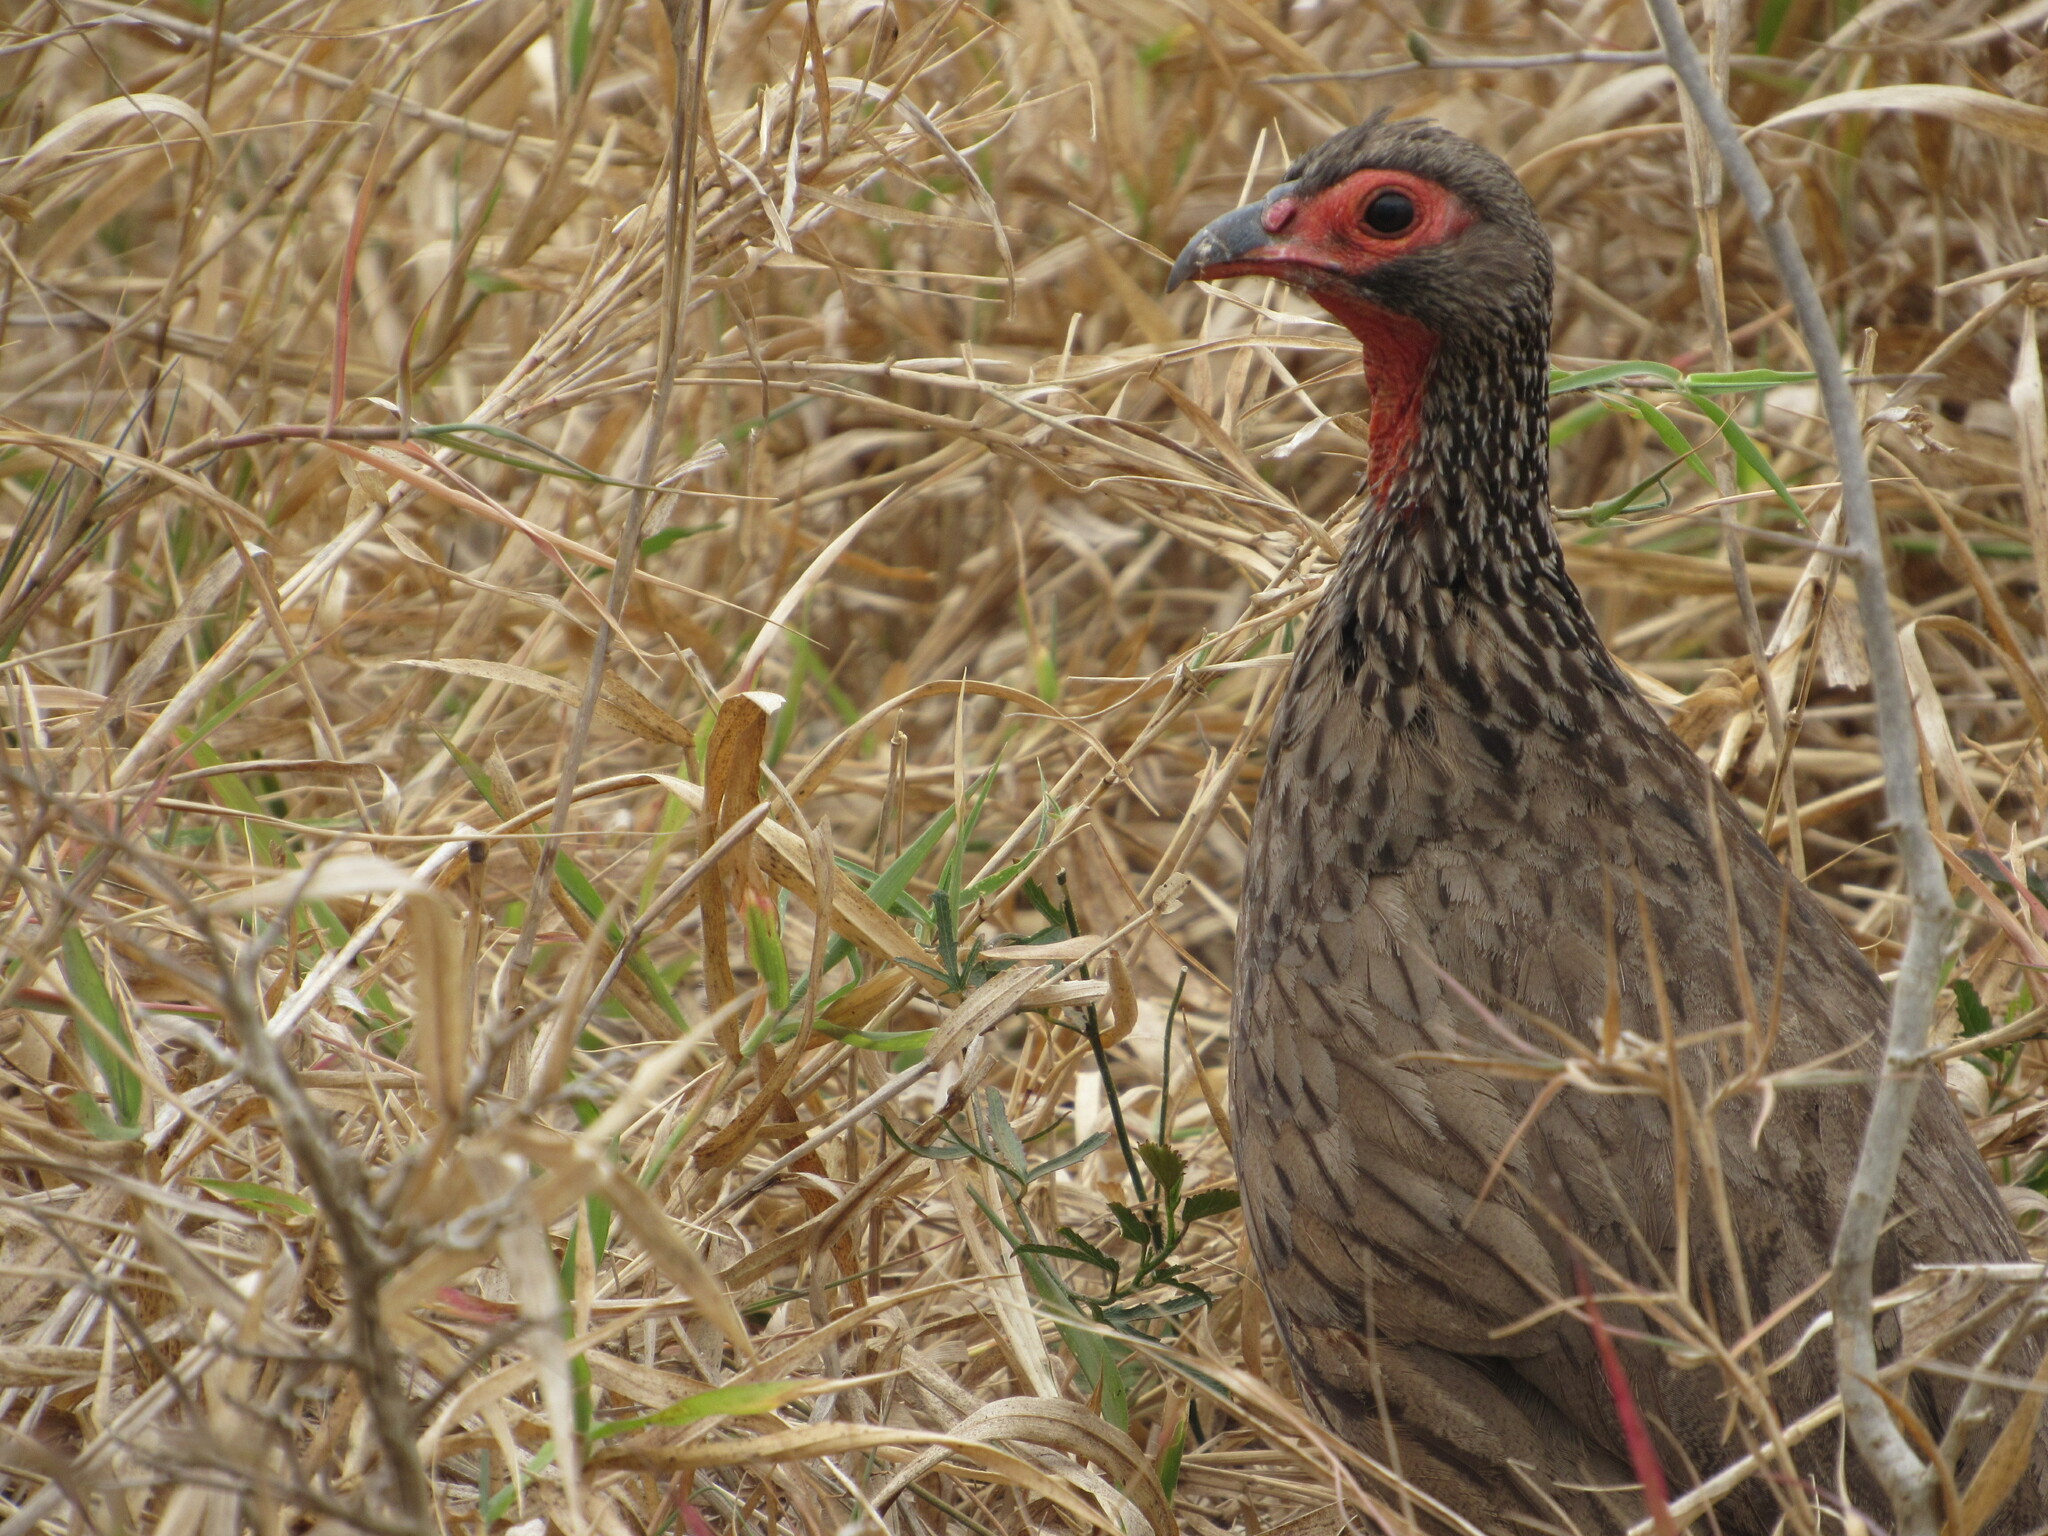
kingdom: Animalia
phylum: Chordata
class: Aves
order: Galliformes
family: Phasianidae
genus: Pternistis
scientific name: Pternistis swainsonii
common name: Swainson's spurfowl
